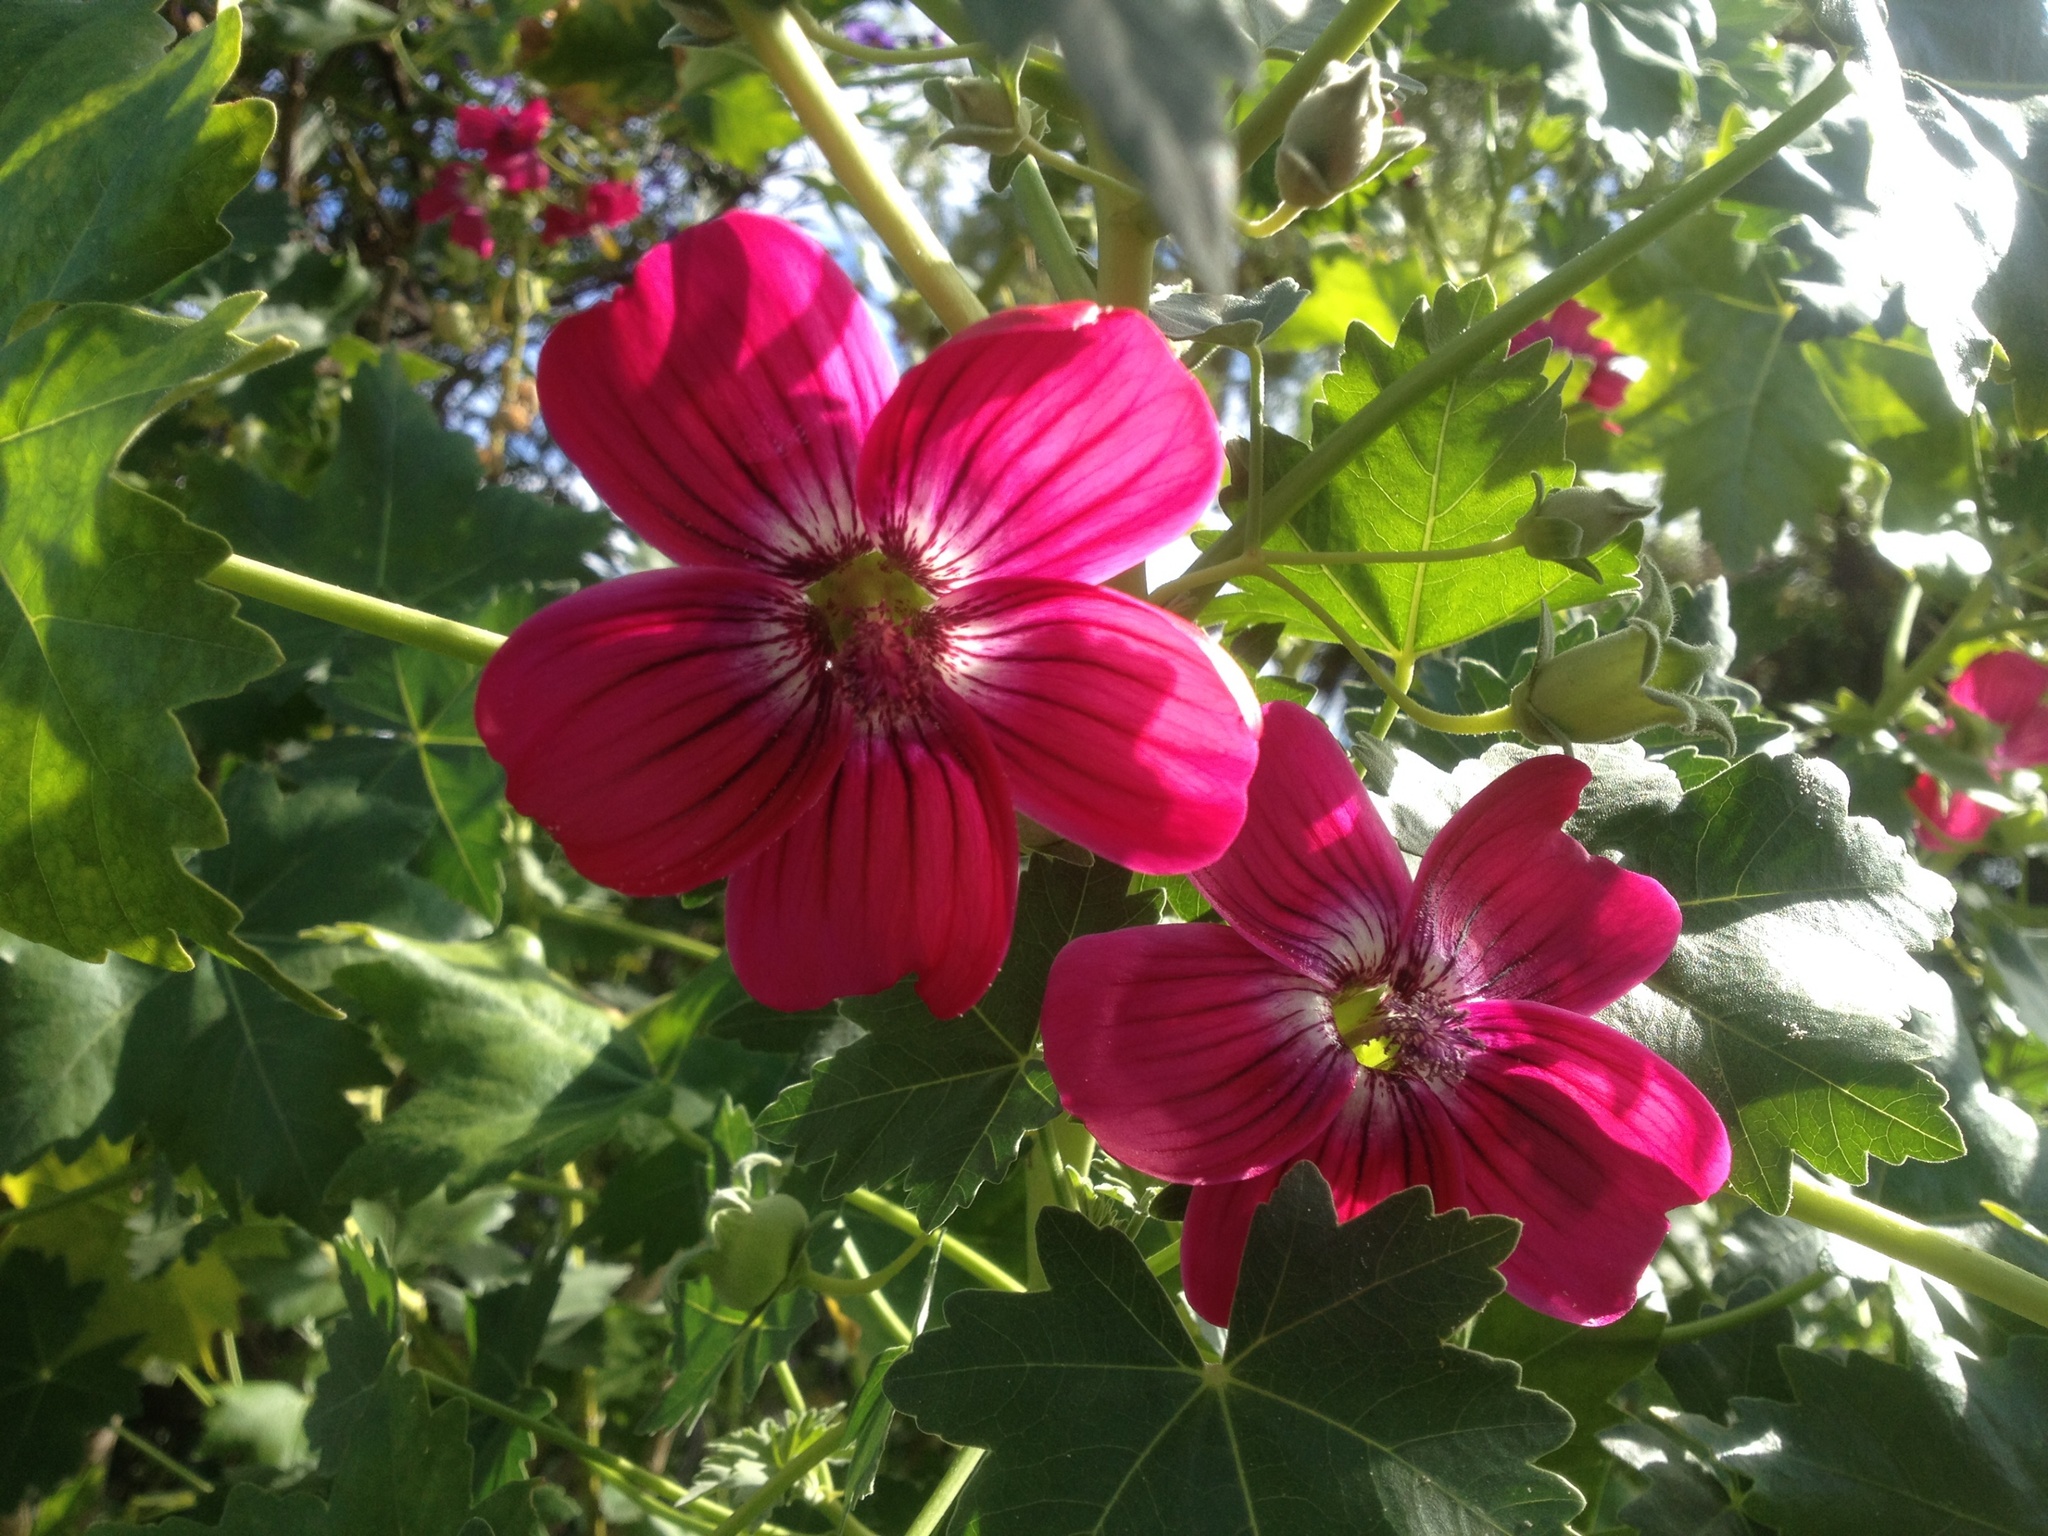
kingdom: Plantae
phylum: Tracheophyta
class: Magnoliopsida
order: Malvales
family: Malvaceae
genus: Malva
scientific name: Malva assurgentiflora
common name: Island mallow
